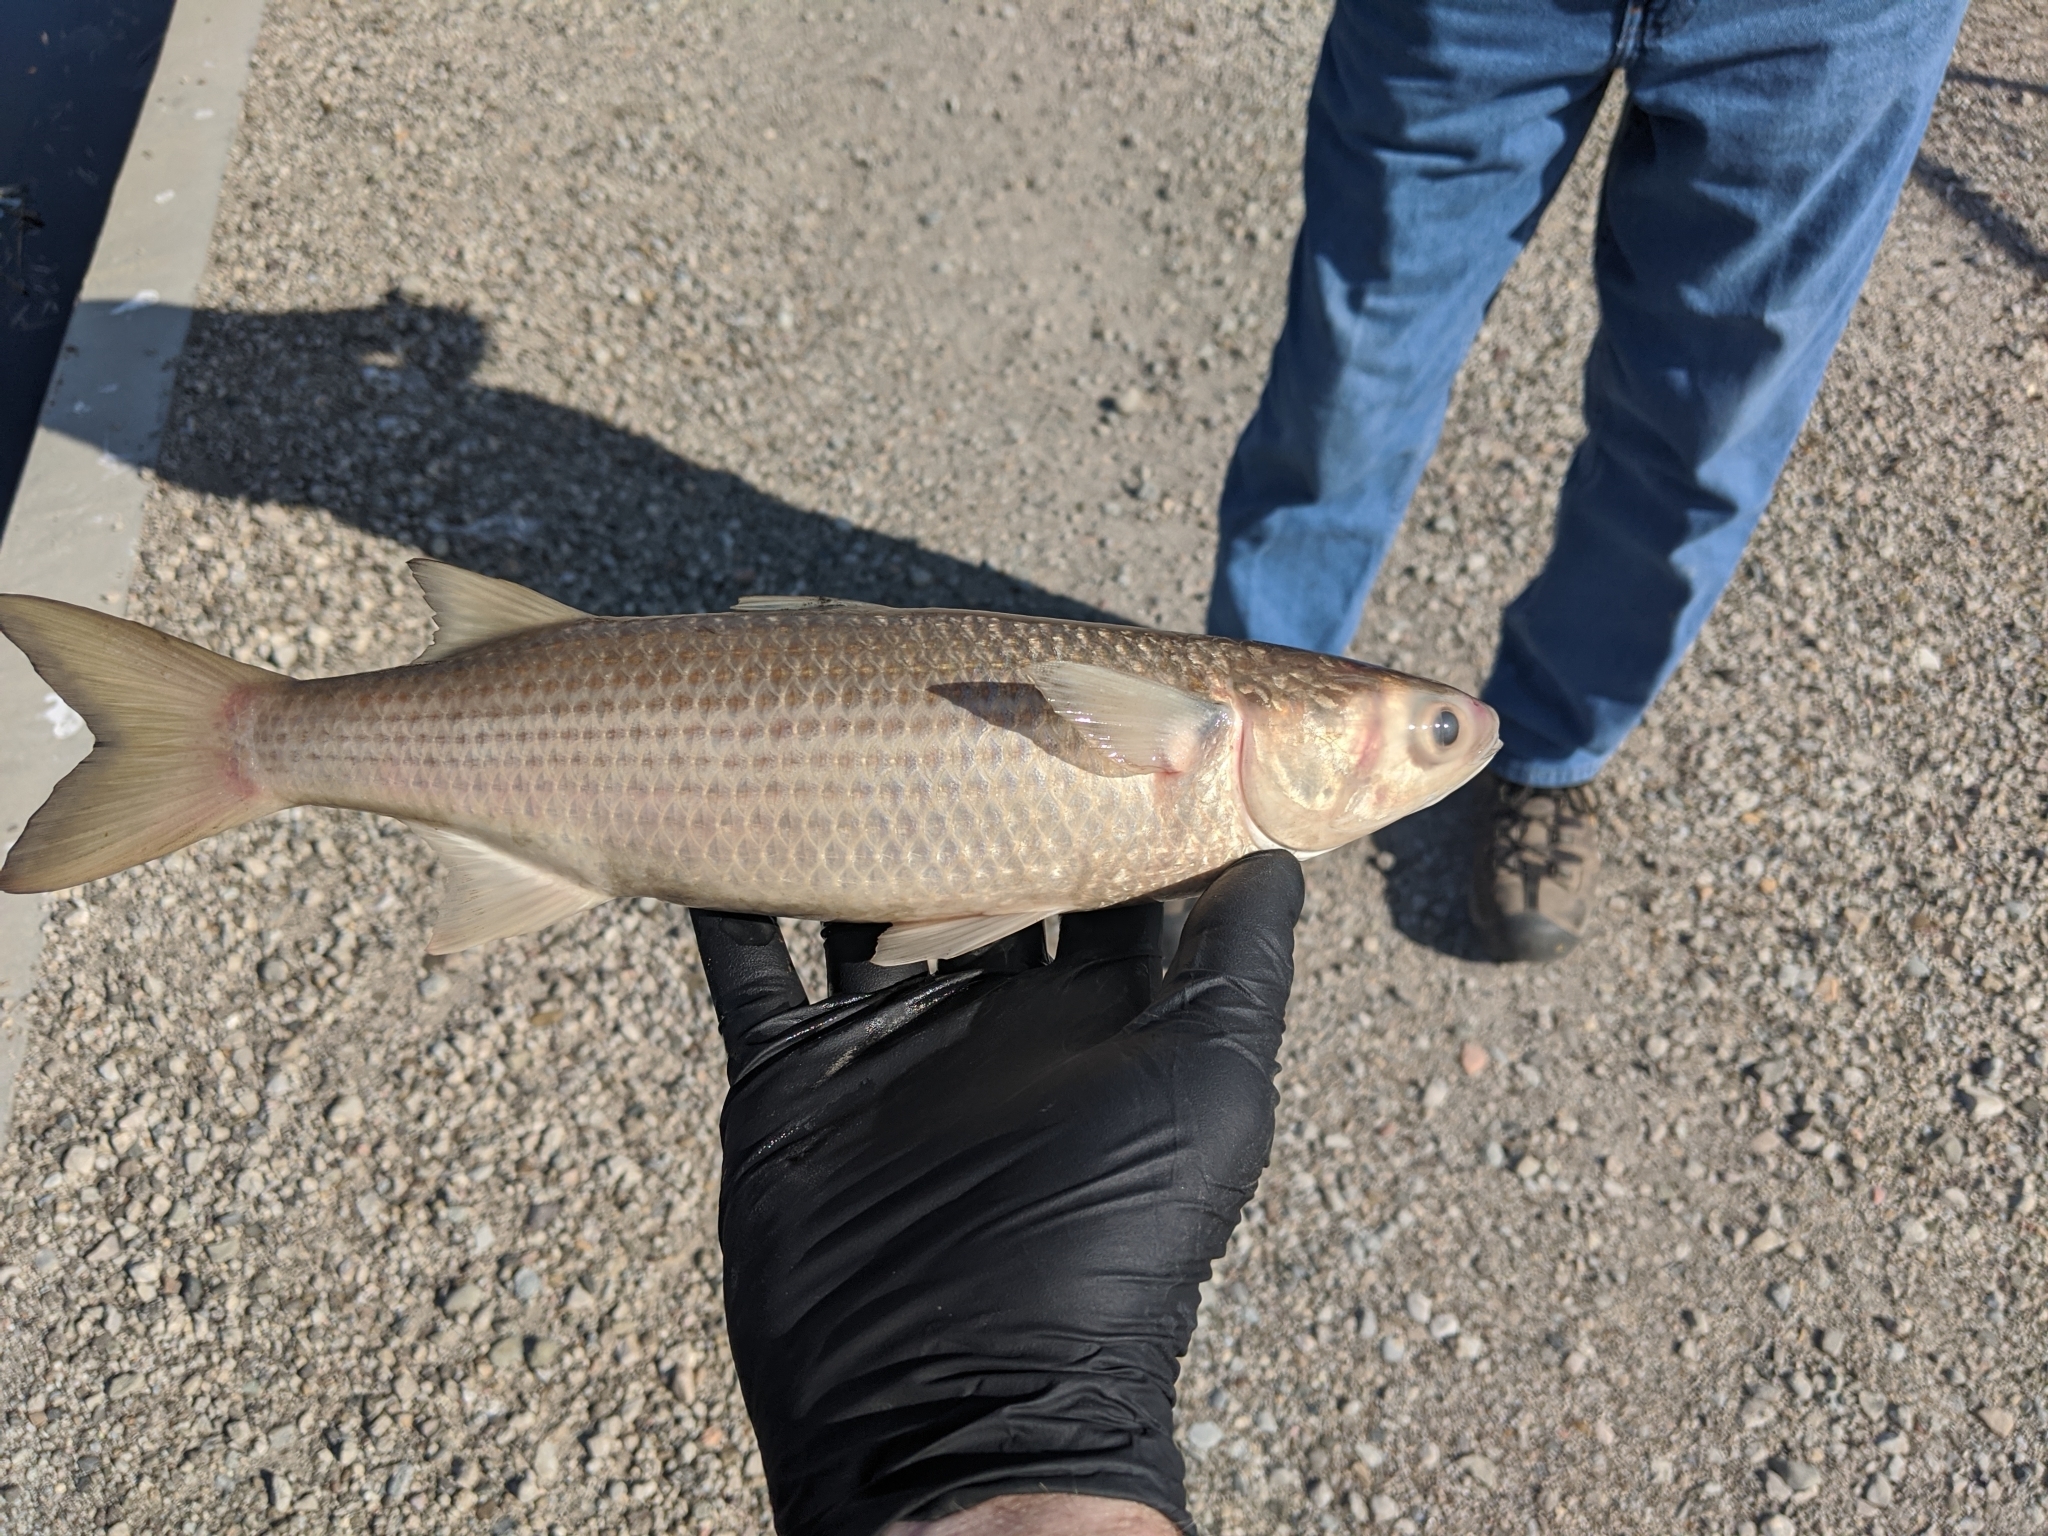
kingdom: Animalia
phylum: Chordata
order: Mugiliformes
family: Mugilidae
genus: Mugil
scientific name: Mugil cephalus
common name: Grey mullet
